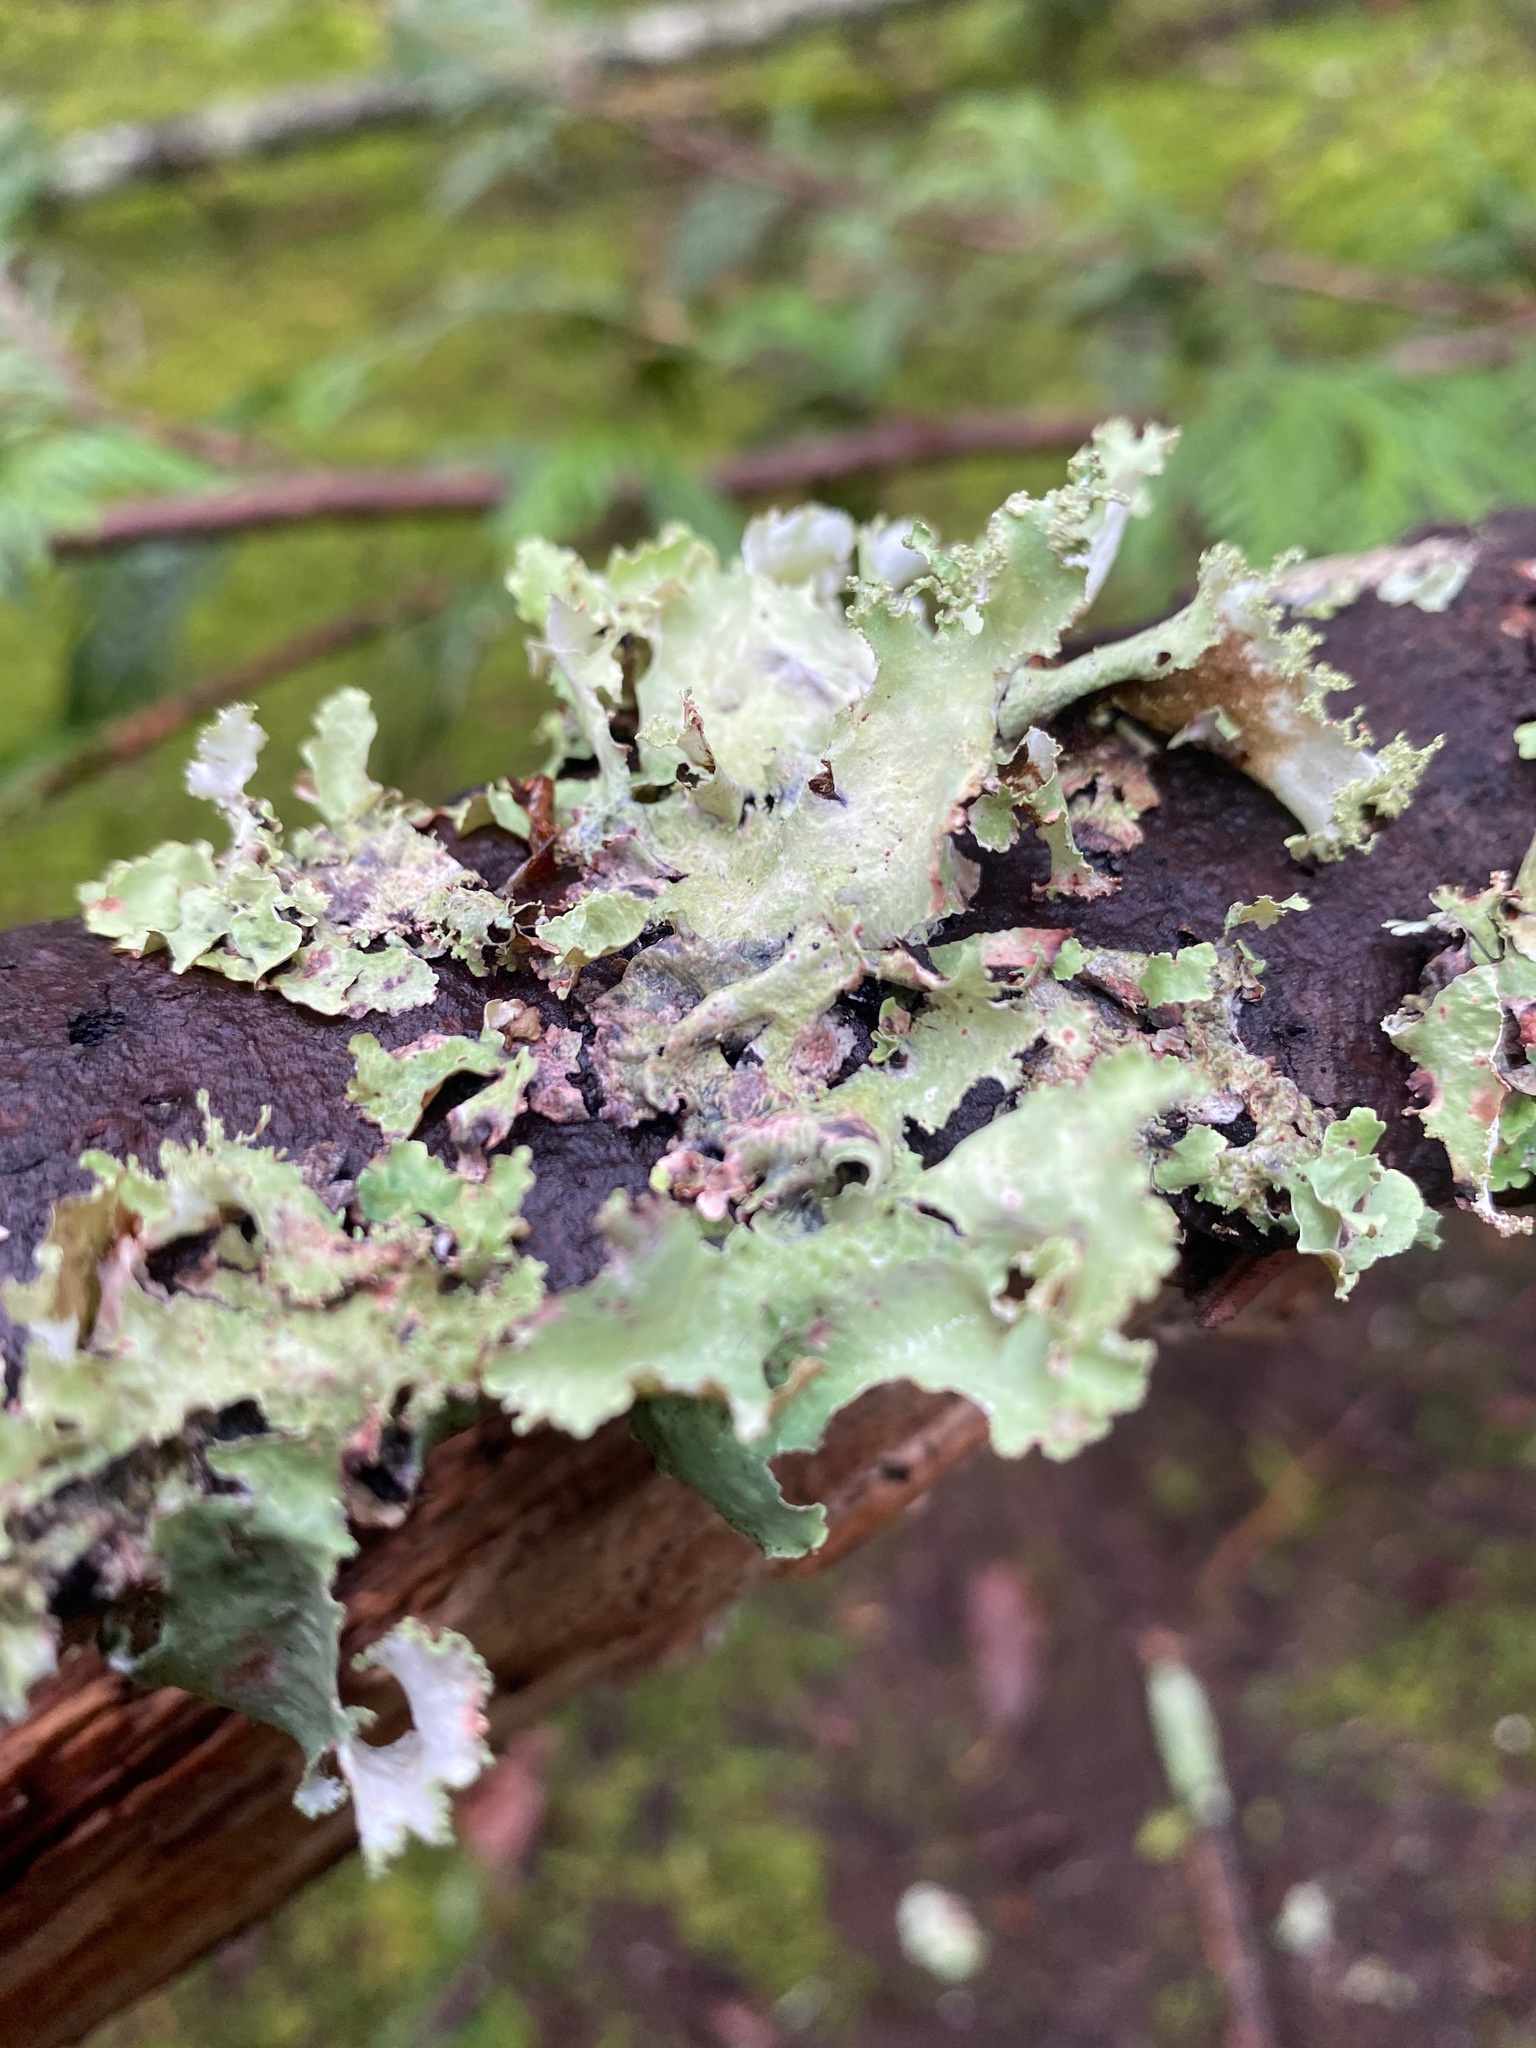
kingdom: Fungi
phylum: Ascomycota
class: Lecanoromycetes
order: Lecanorales
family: Parmeliaceae
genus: Platismatia
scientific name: Platismatia glauca
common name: Varied rag lichen
